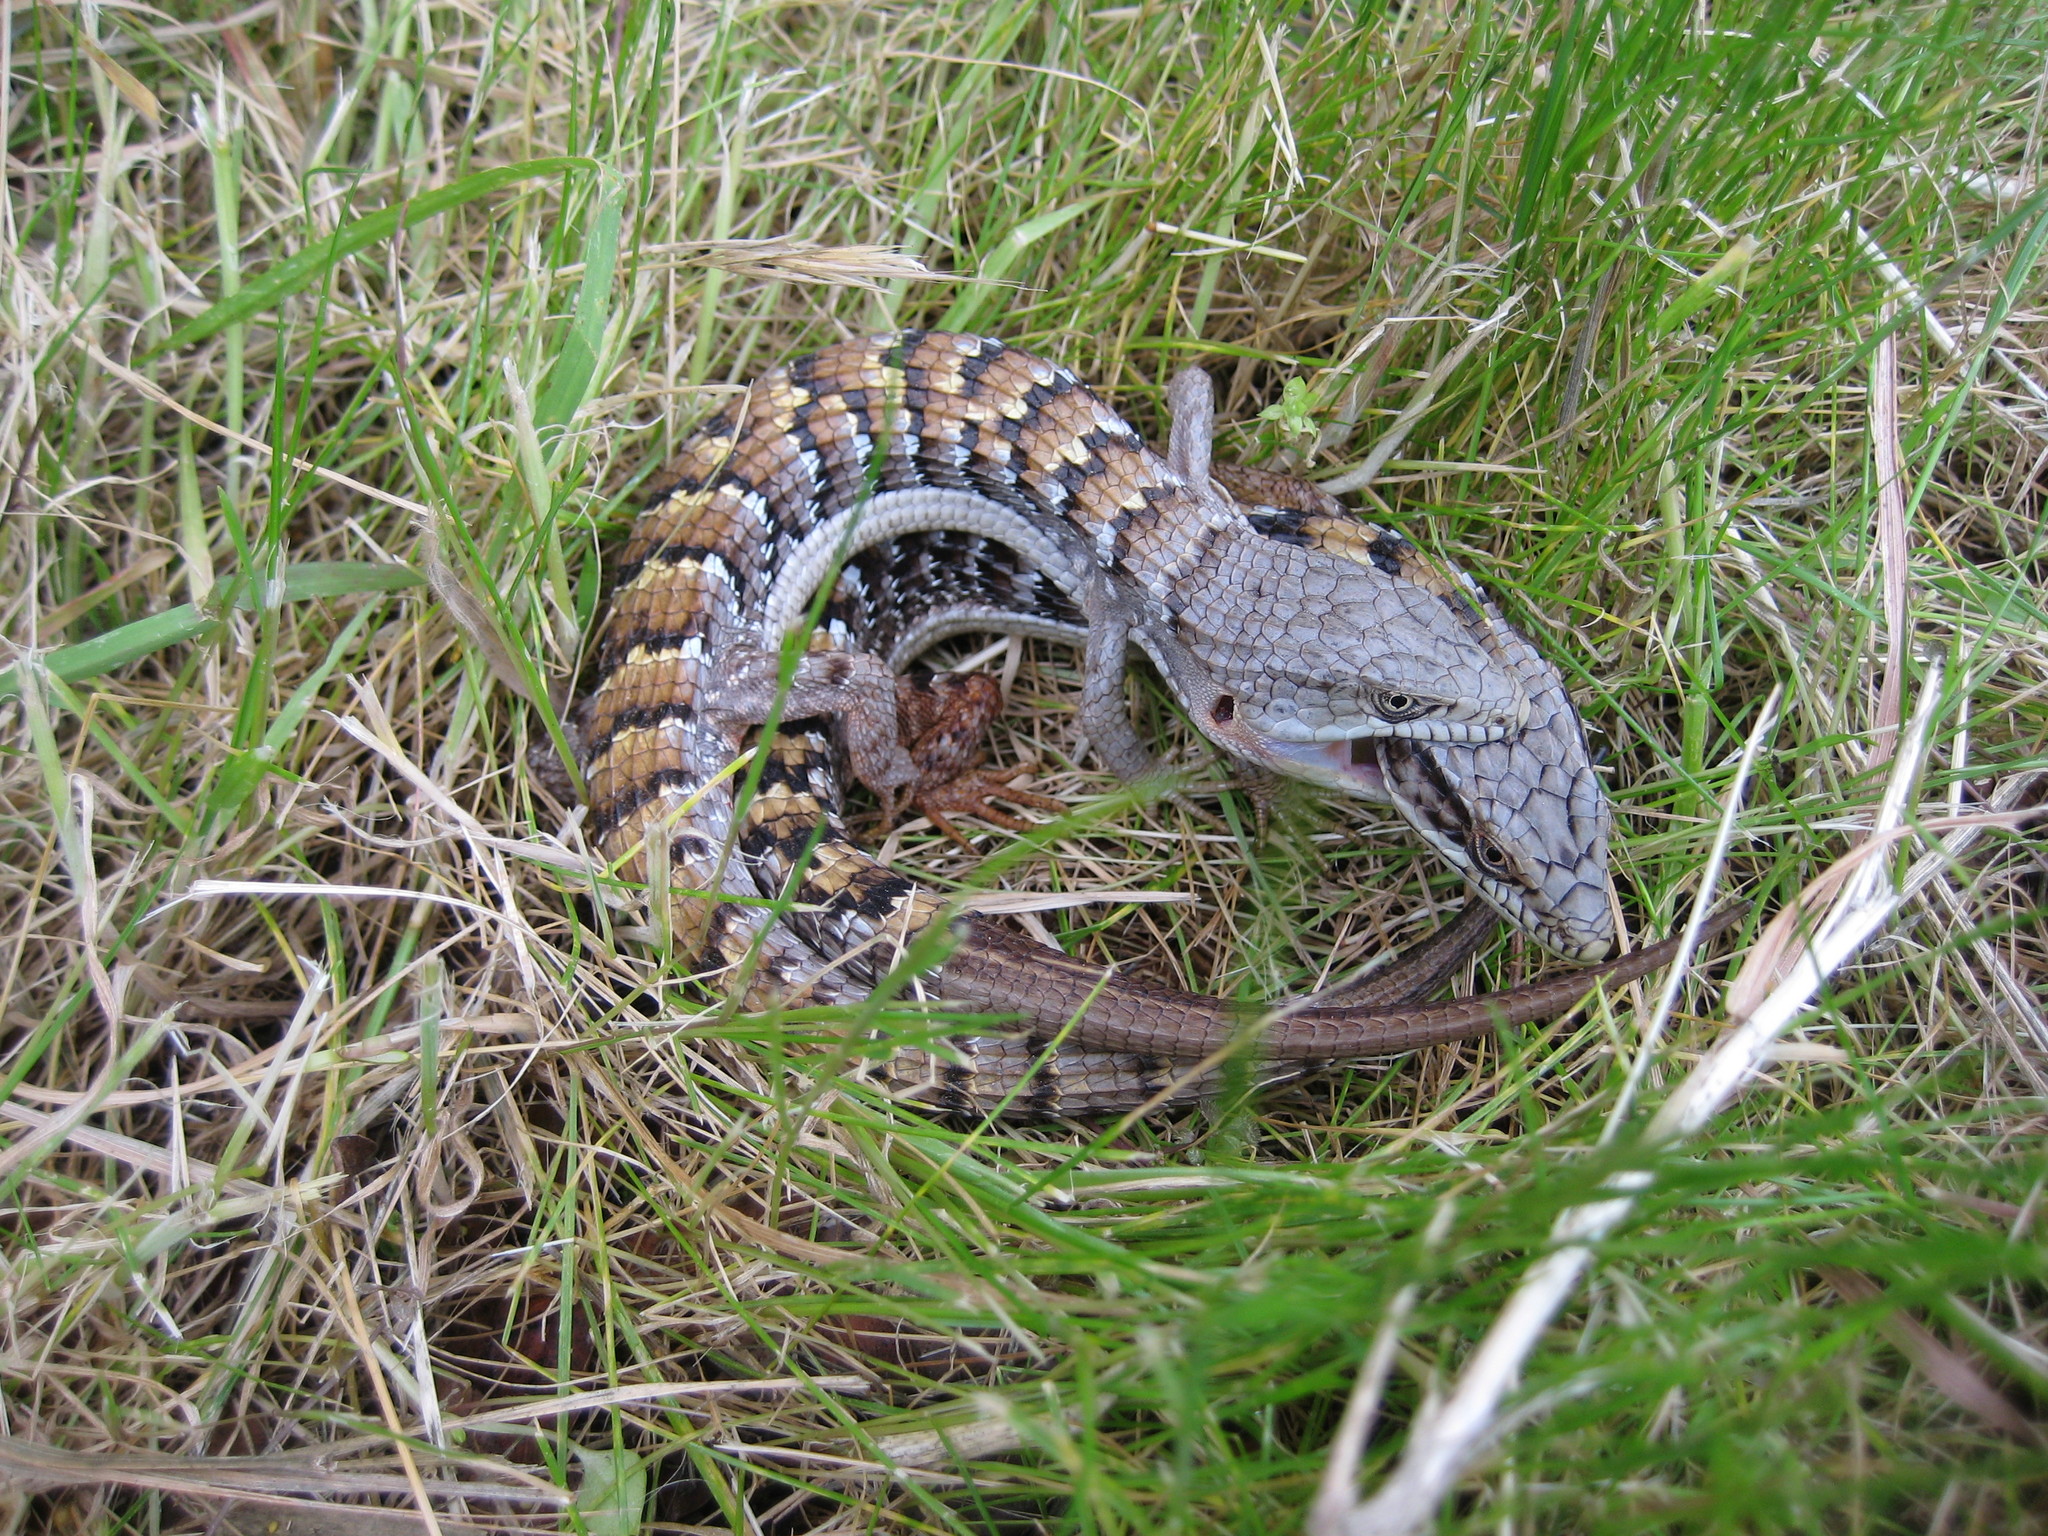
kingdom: Animalia
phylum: Chordata
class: Squamata
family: Anguidae
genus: Elgaria
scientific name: Elgaria multicarinata
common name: Southern alligator lizard
